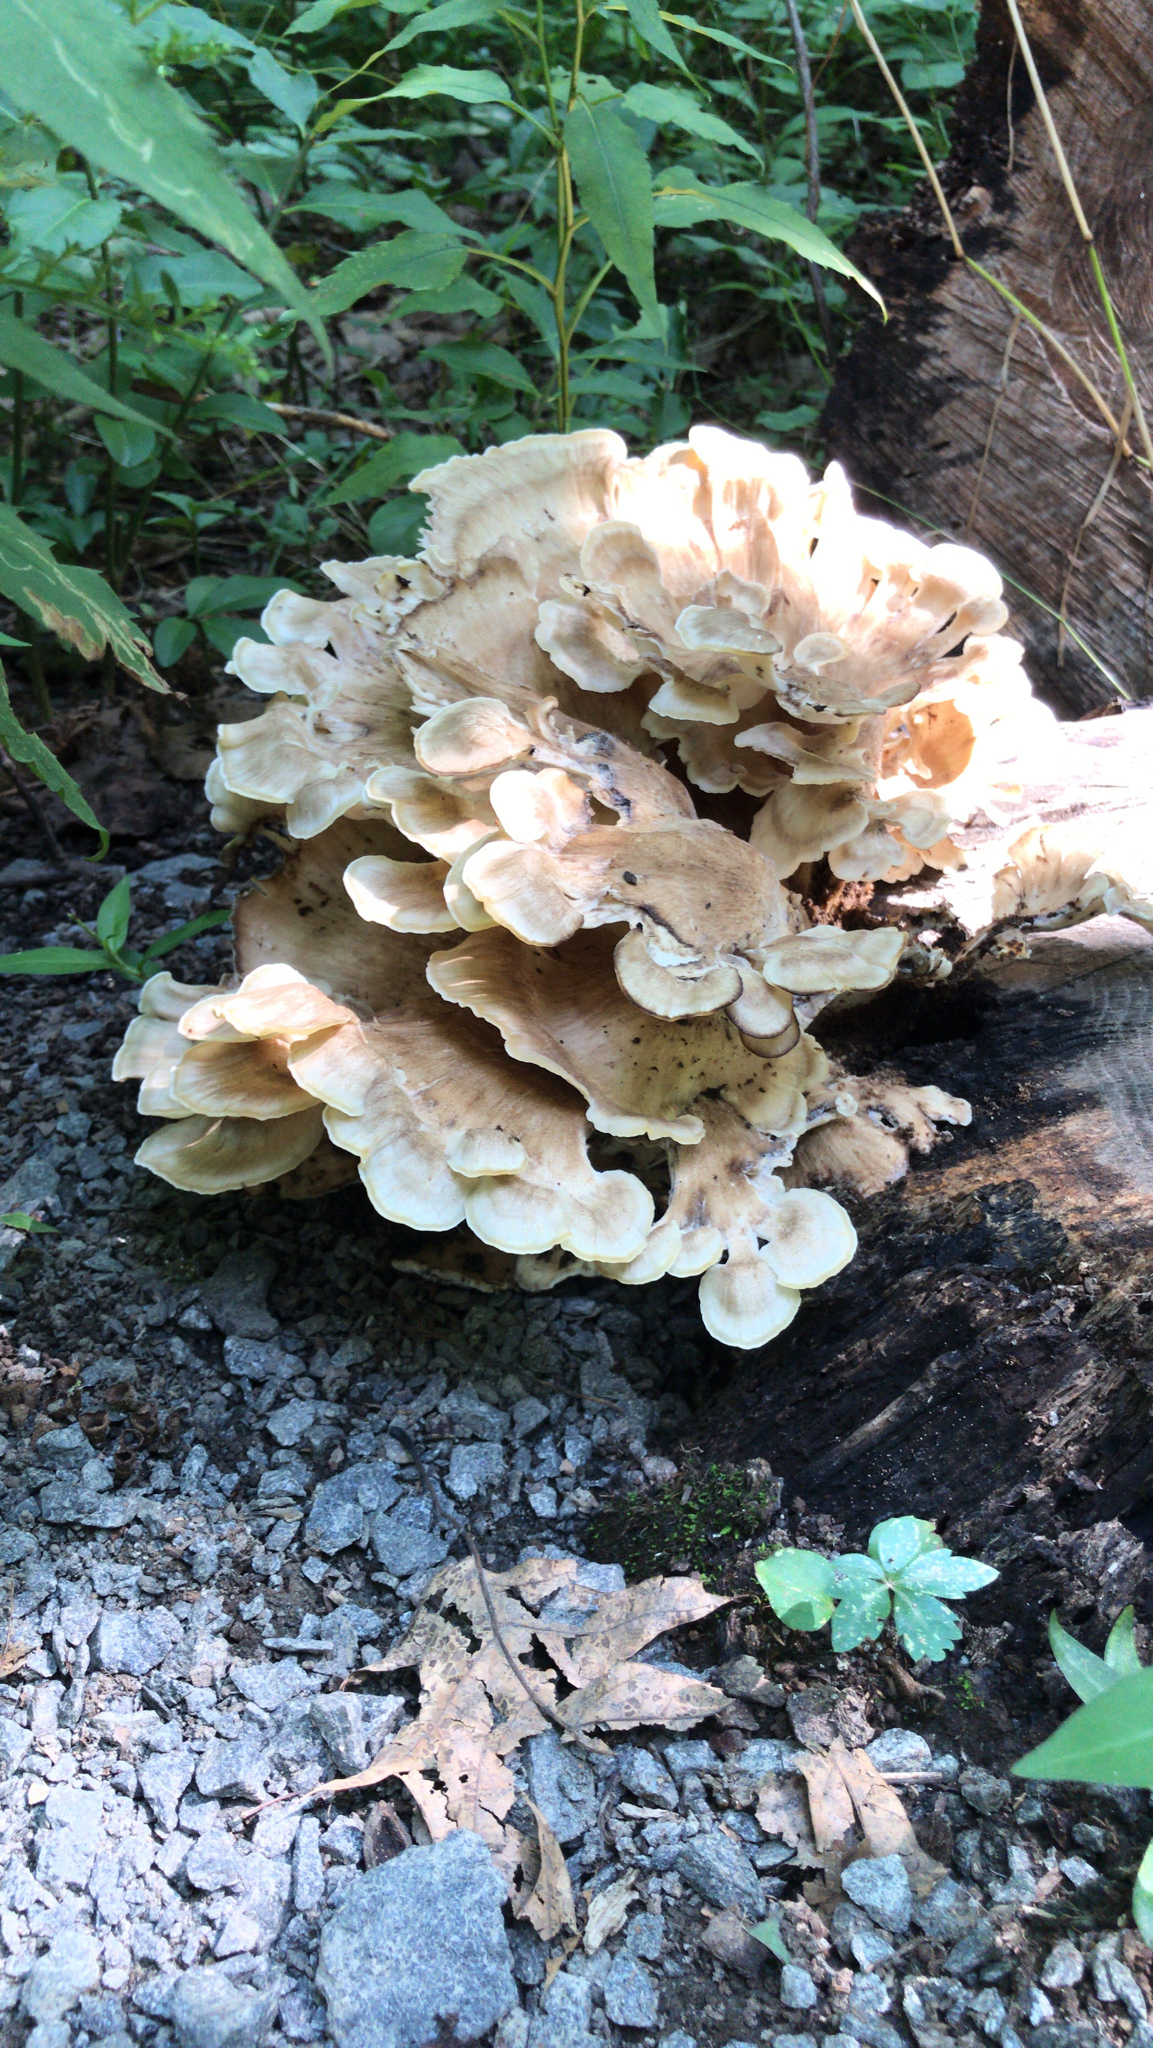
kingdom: Fungi
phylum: Basidiomycota
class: Agaricomycetes
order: Polyporales
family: Meripilaceae
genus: Meripilus
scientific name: Meripilus sumstinei
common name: Black-staining polypore
